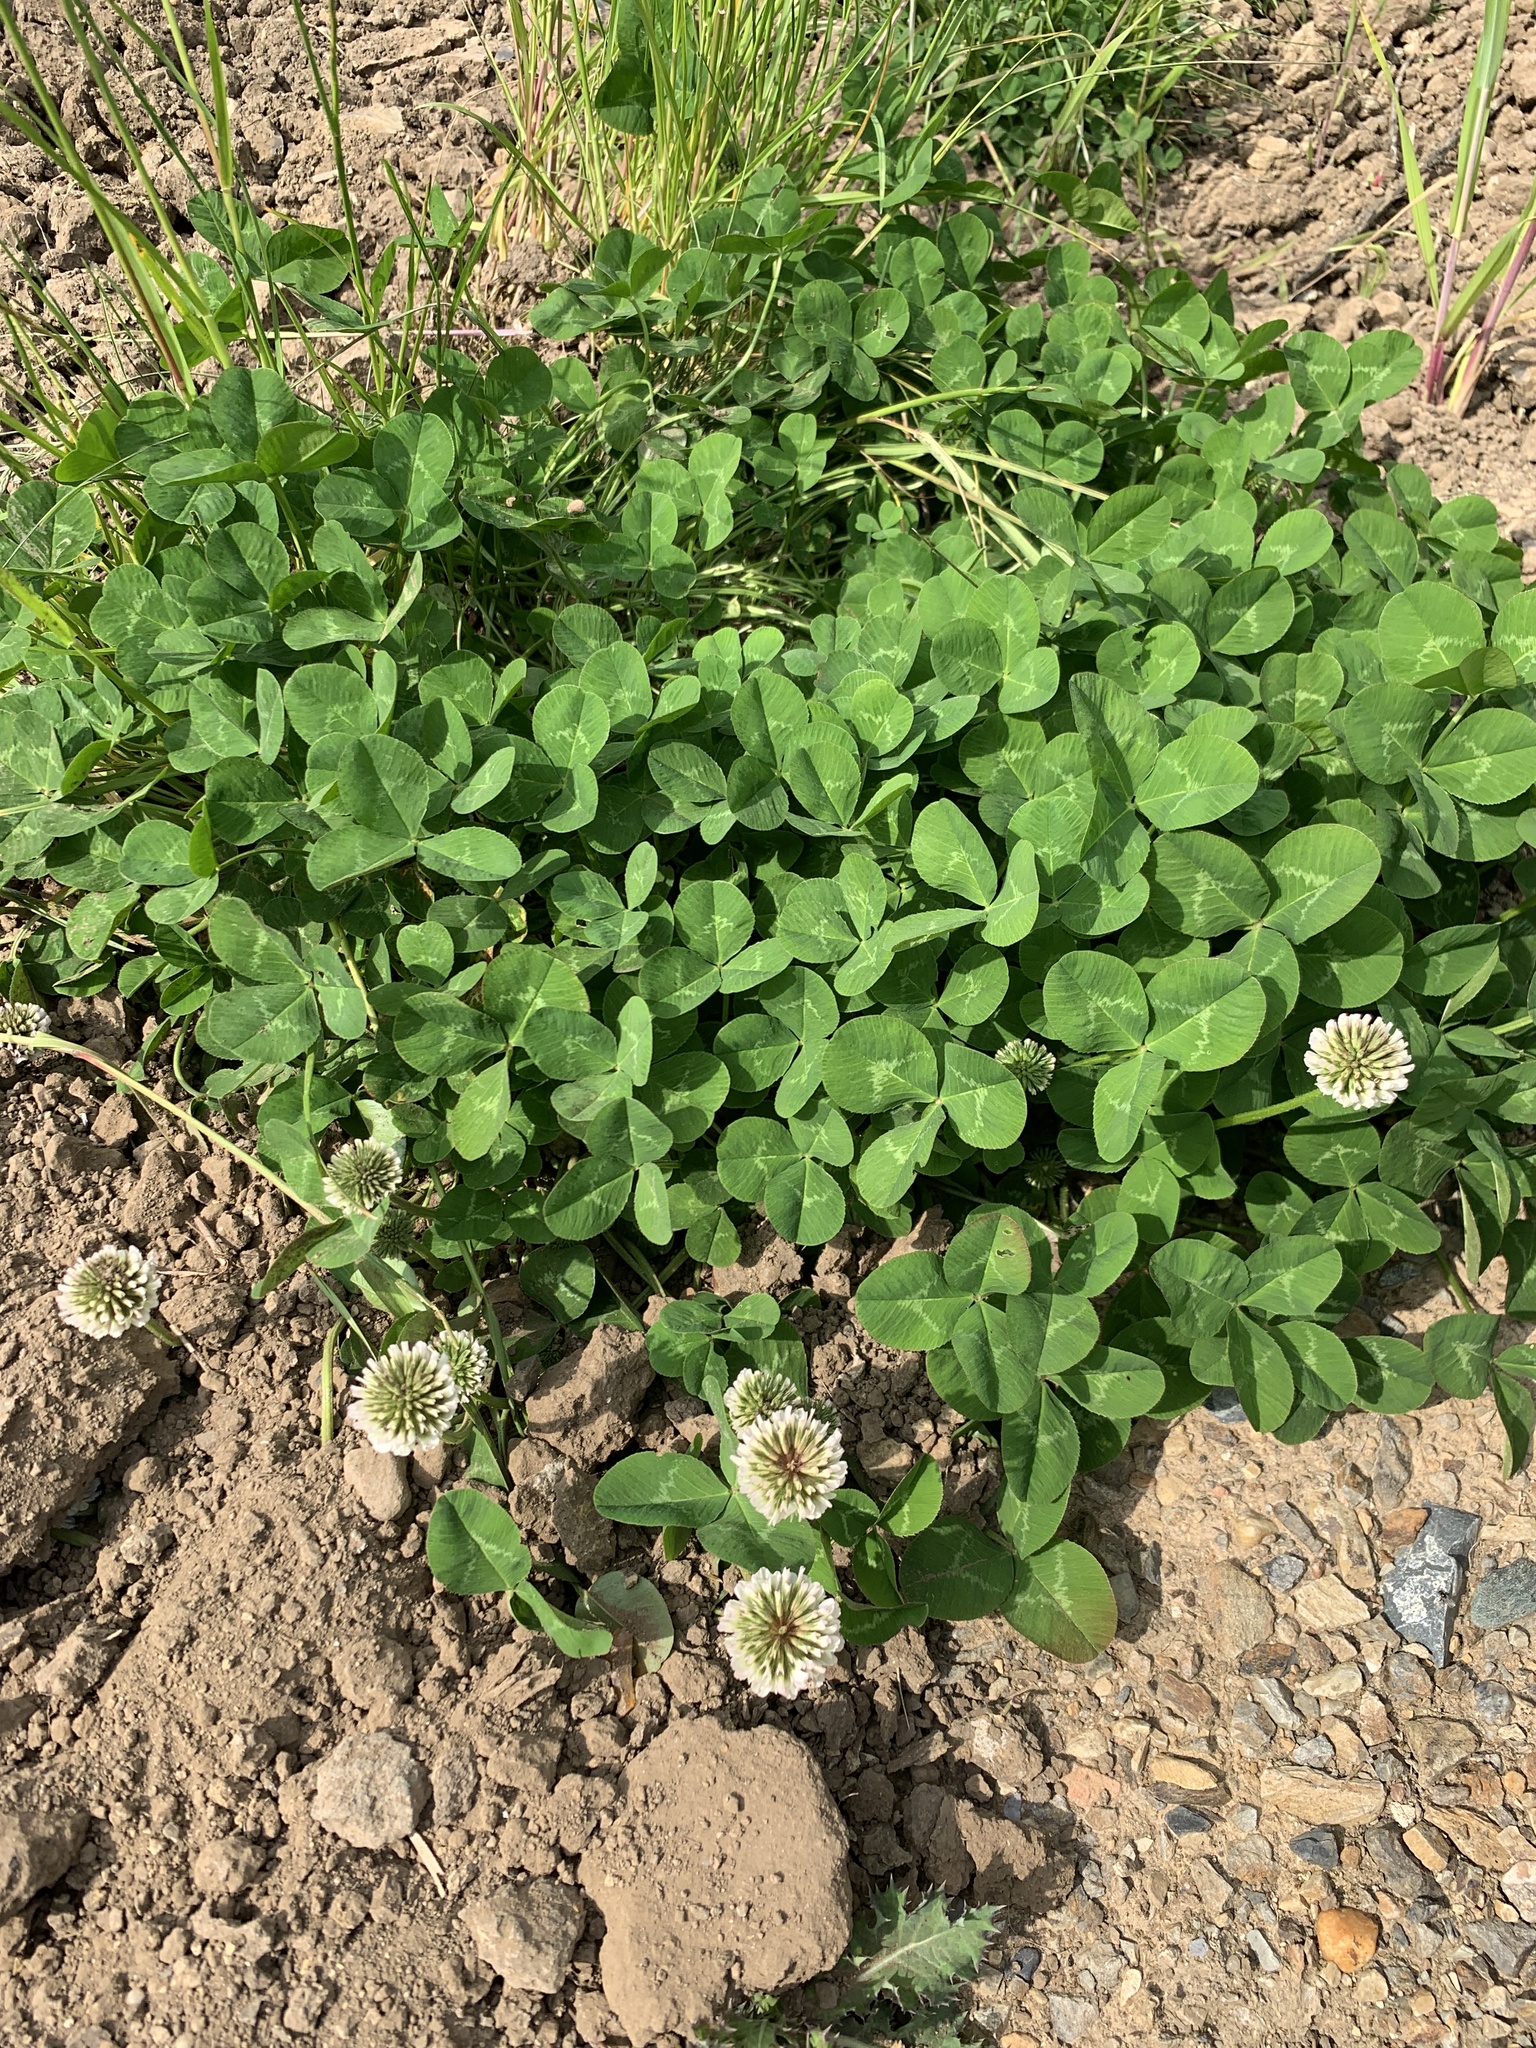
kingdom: Plantae
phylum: Tracheophyta
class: Magnoliopsida
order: Fabales
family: Fabaceae
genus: Trifolium
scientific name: Trifolium repens
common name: White clover
